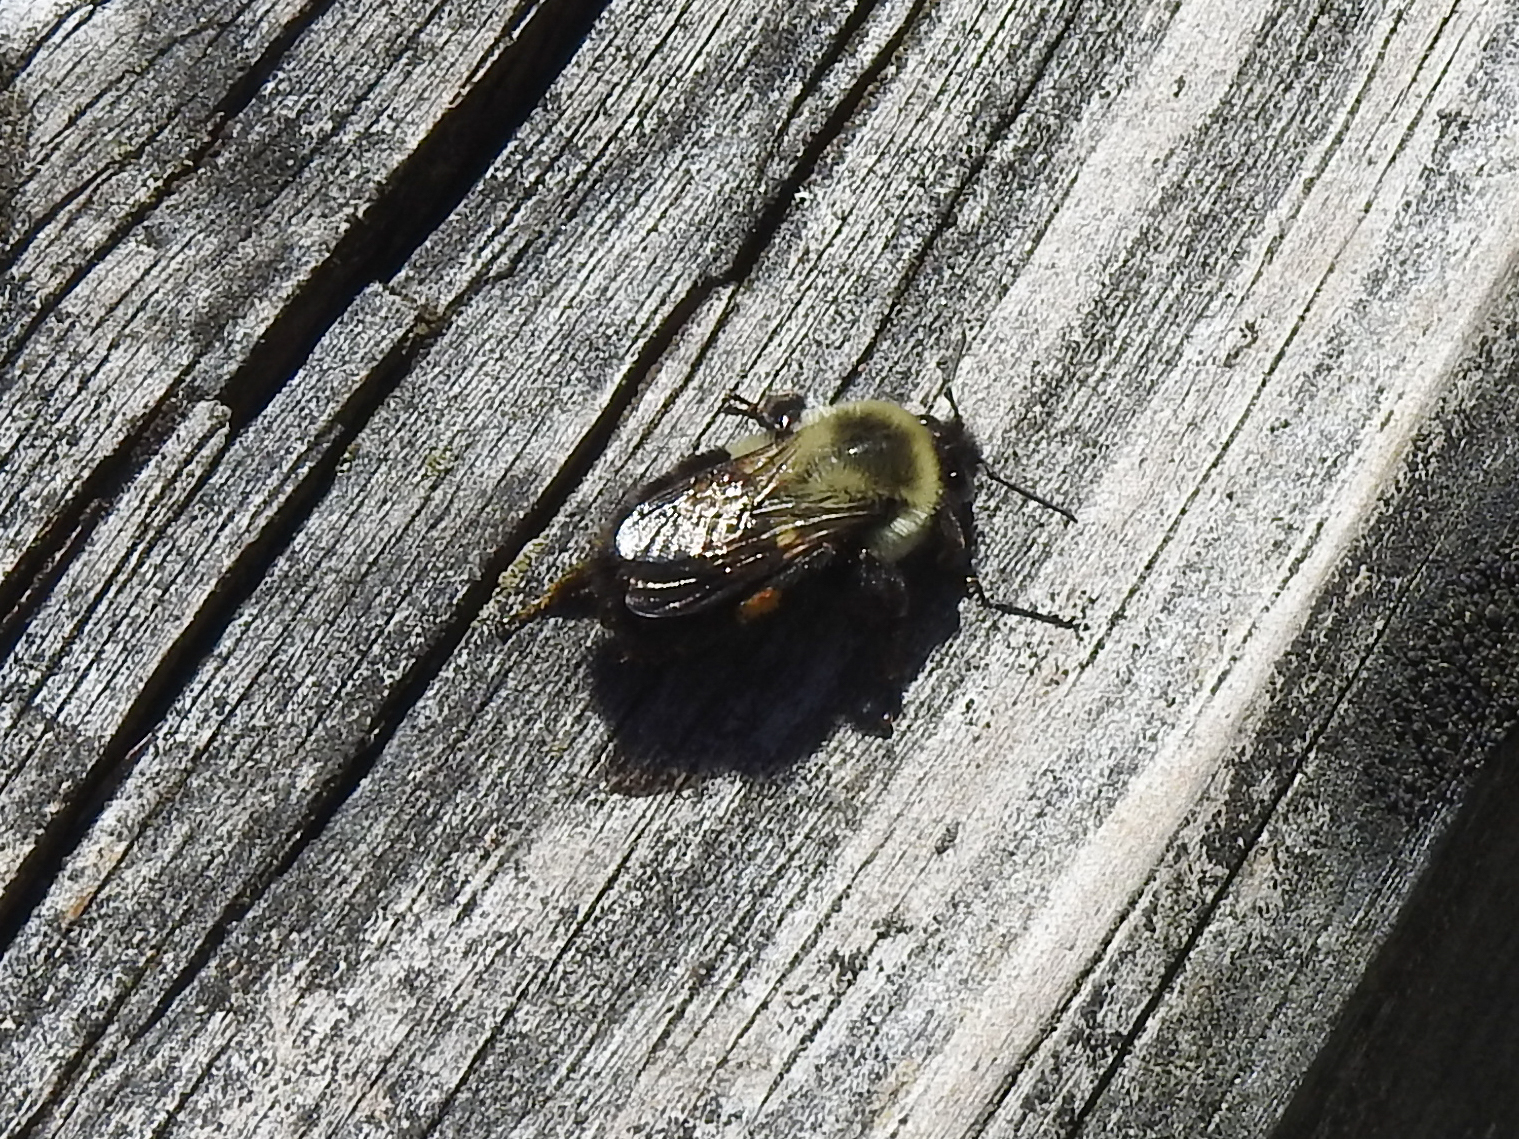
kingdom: Animalia
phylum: Arthropoda
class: Insecta
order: Hymenoptera
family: Apidae
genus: Bombus
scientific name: Bombus impatiens
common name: Common eastern bumble bee
